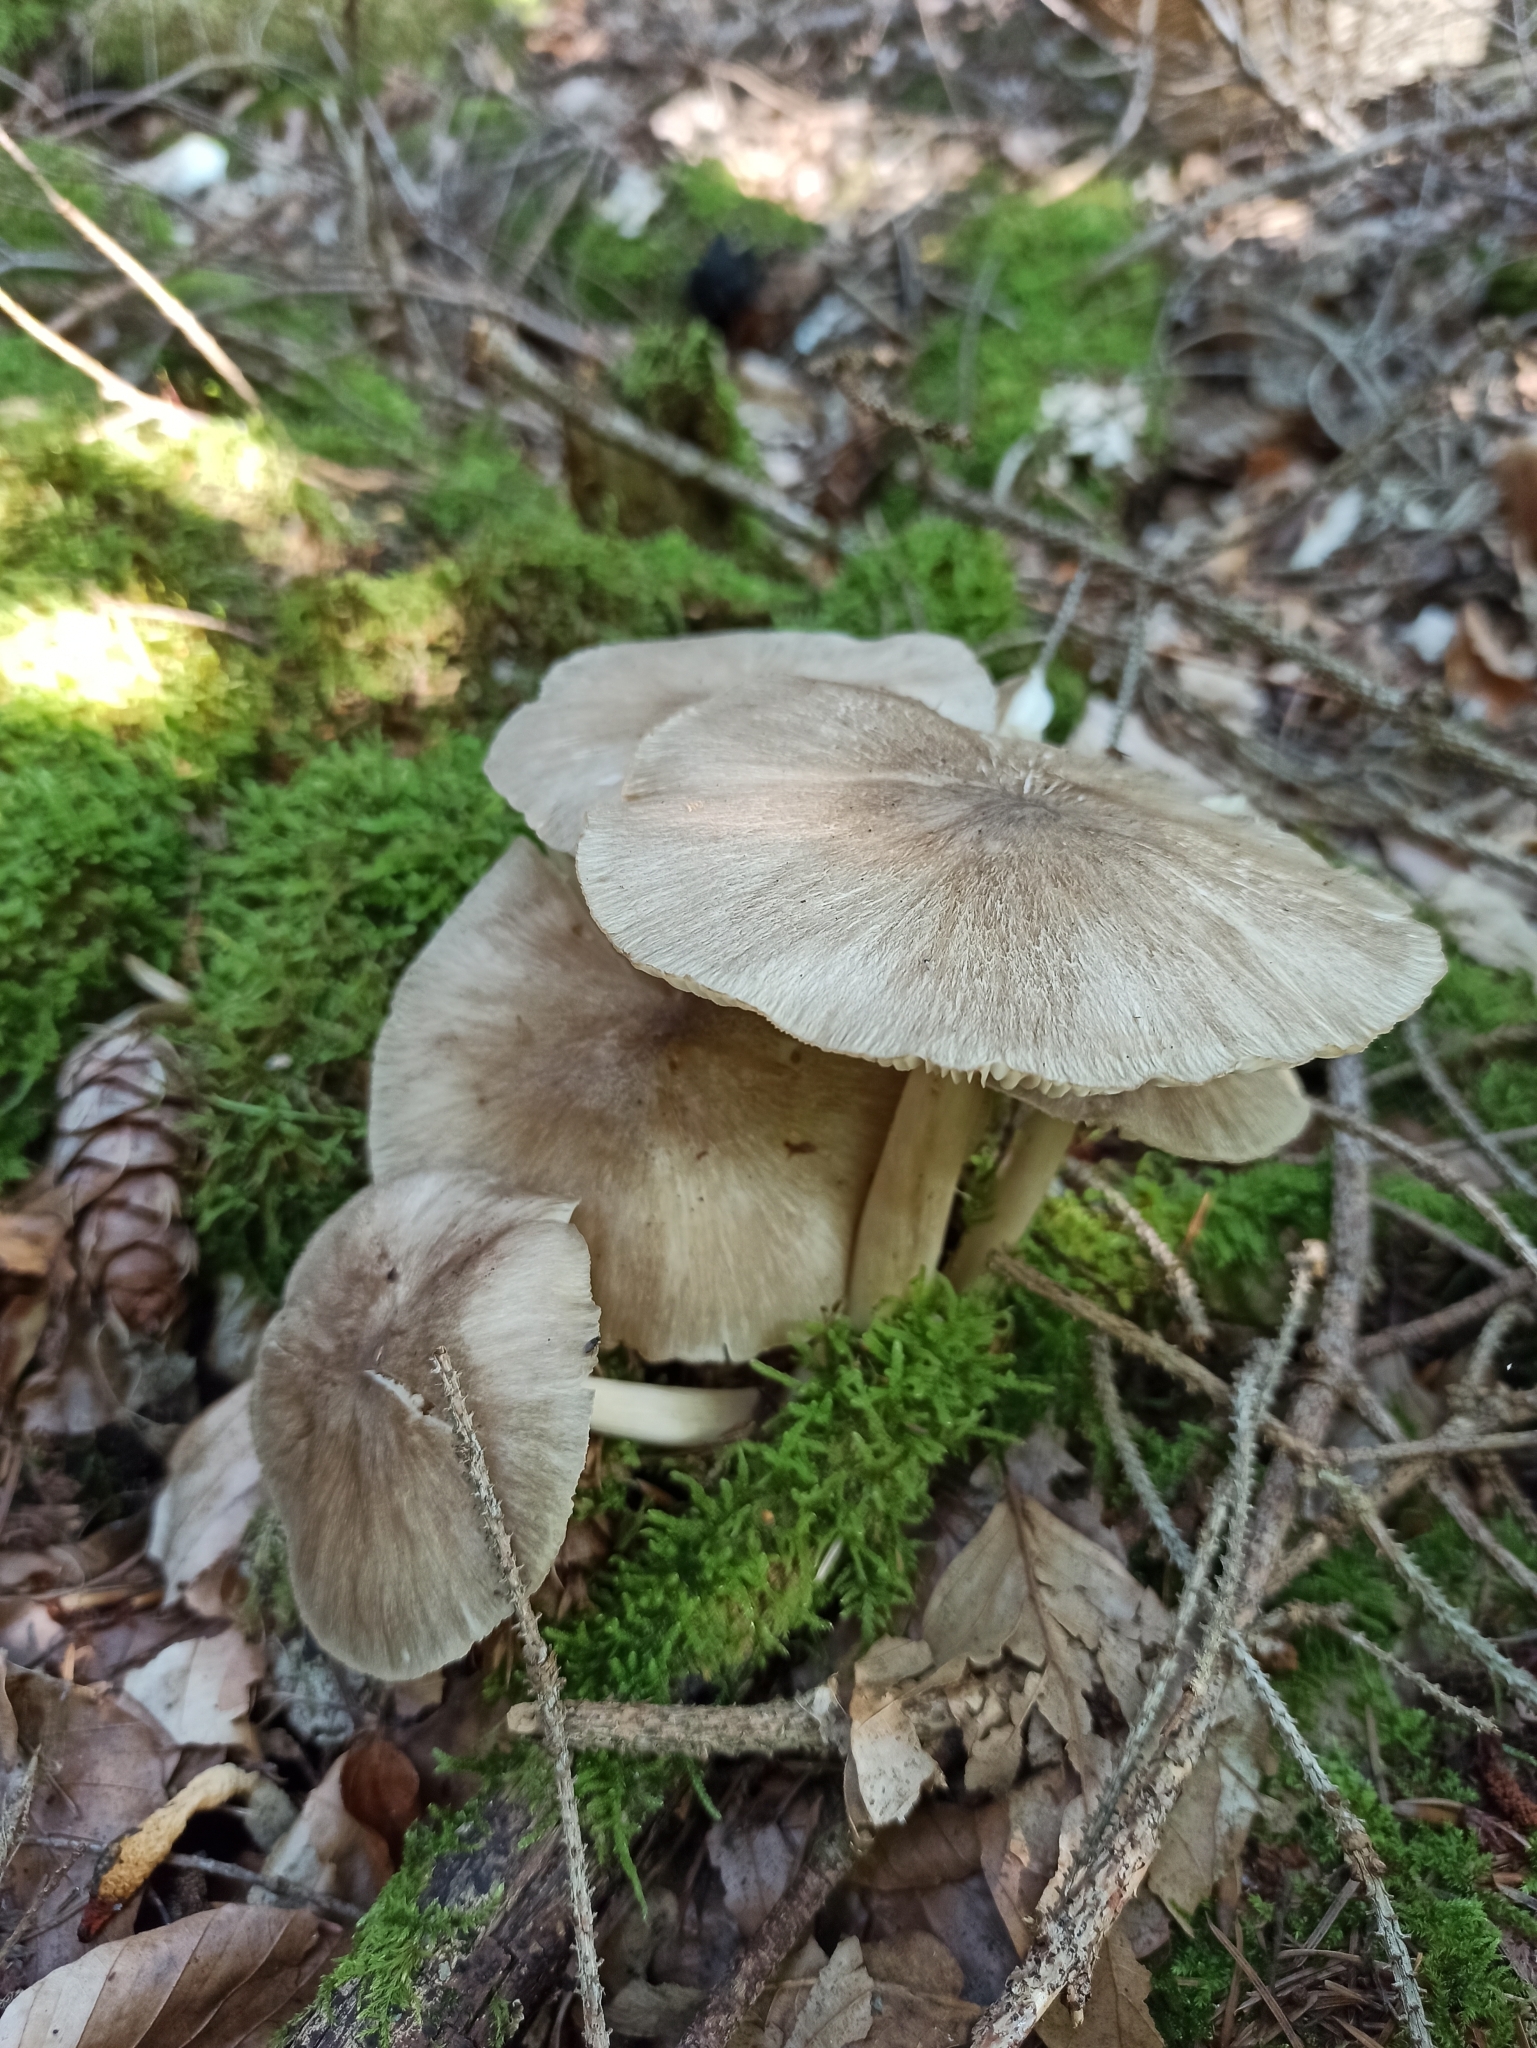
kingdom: Fungi
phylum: Basidiomycota
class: Agaricomycetes
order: Agaricales
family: Tricholomataceae
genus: Megacollybia
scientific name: Megacollybia platyphylla
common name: Whitelaced shank
